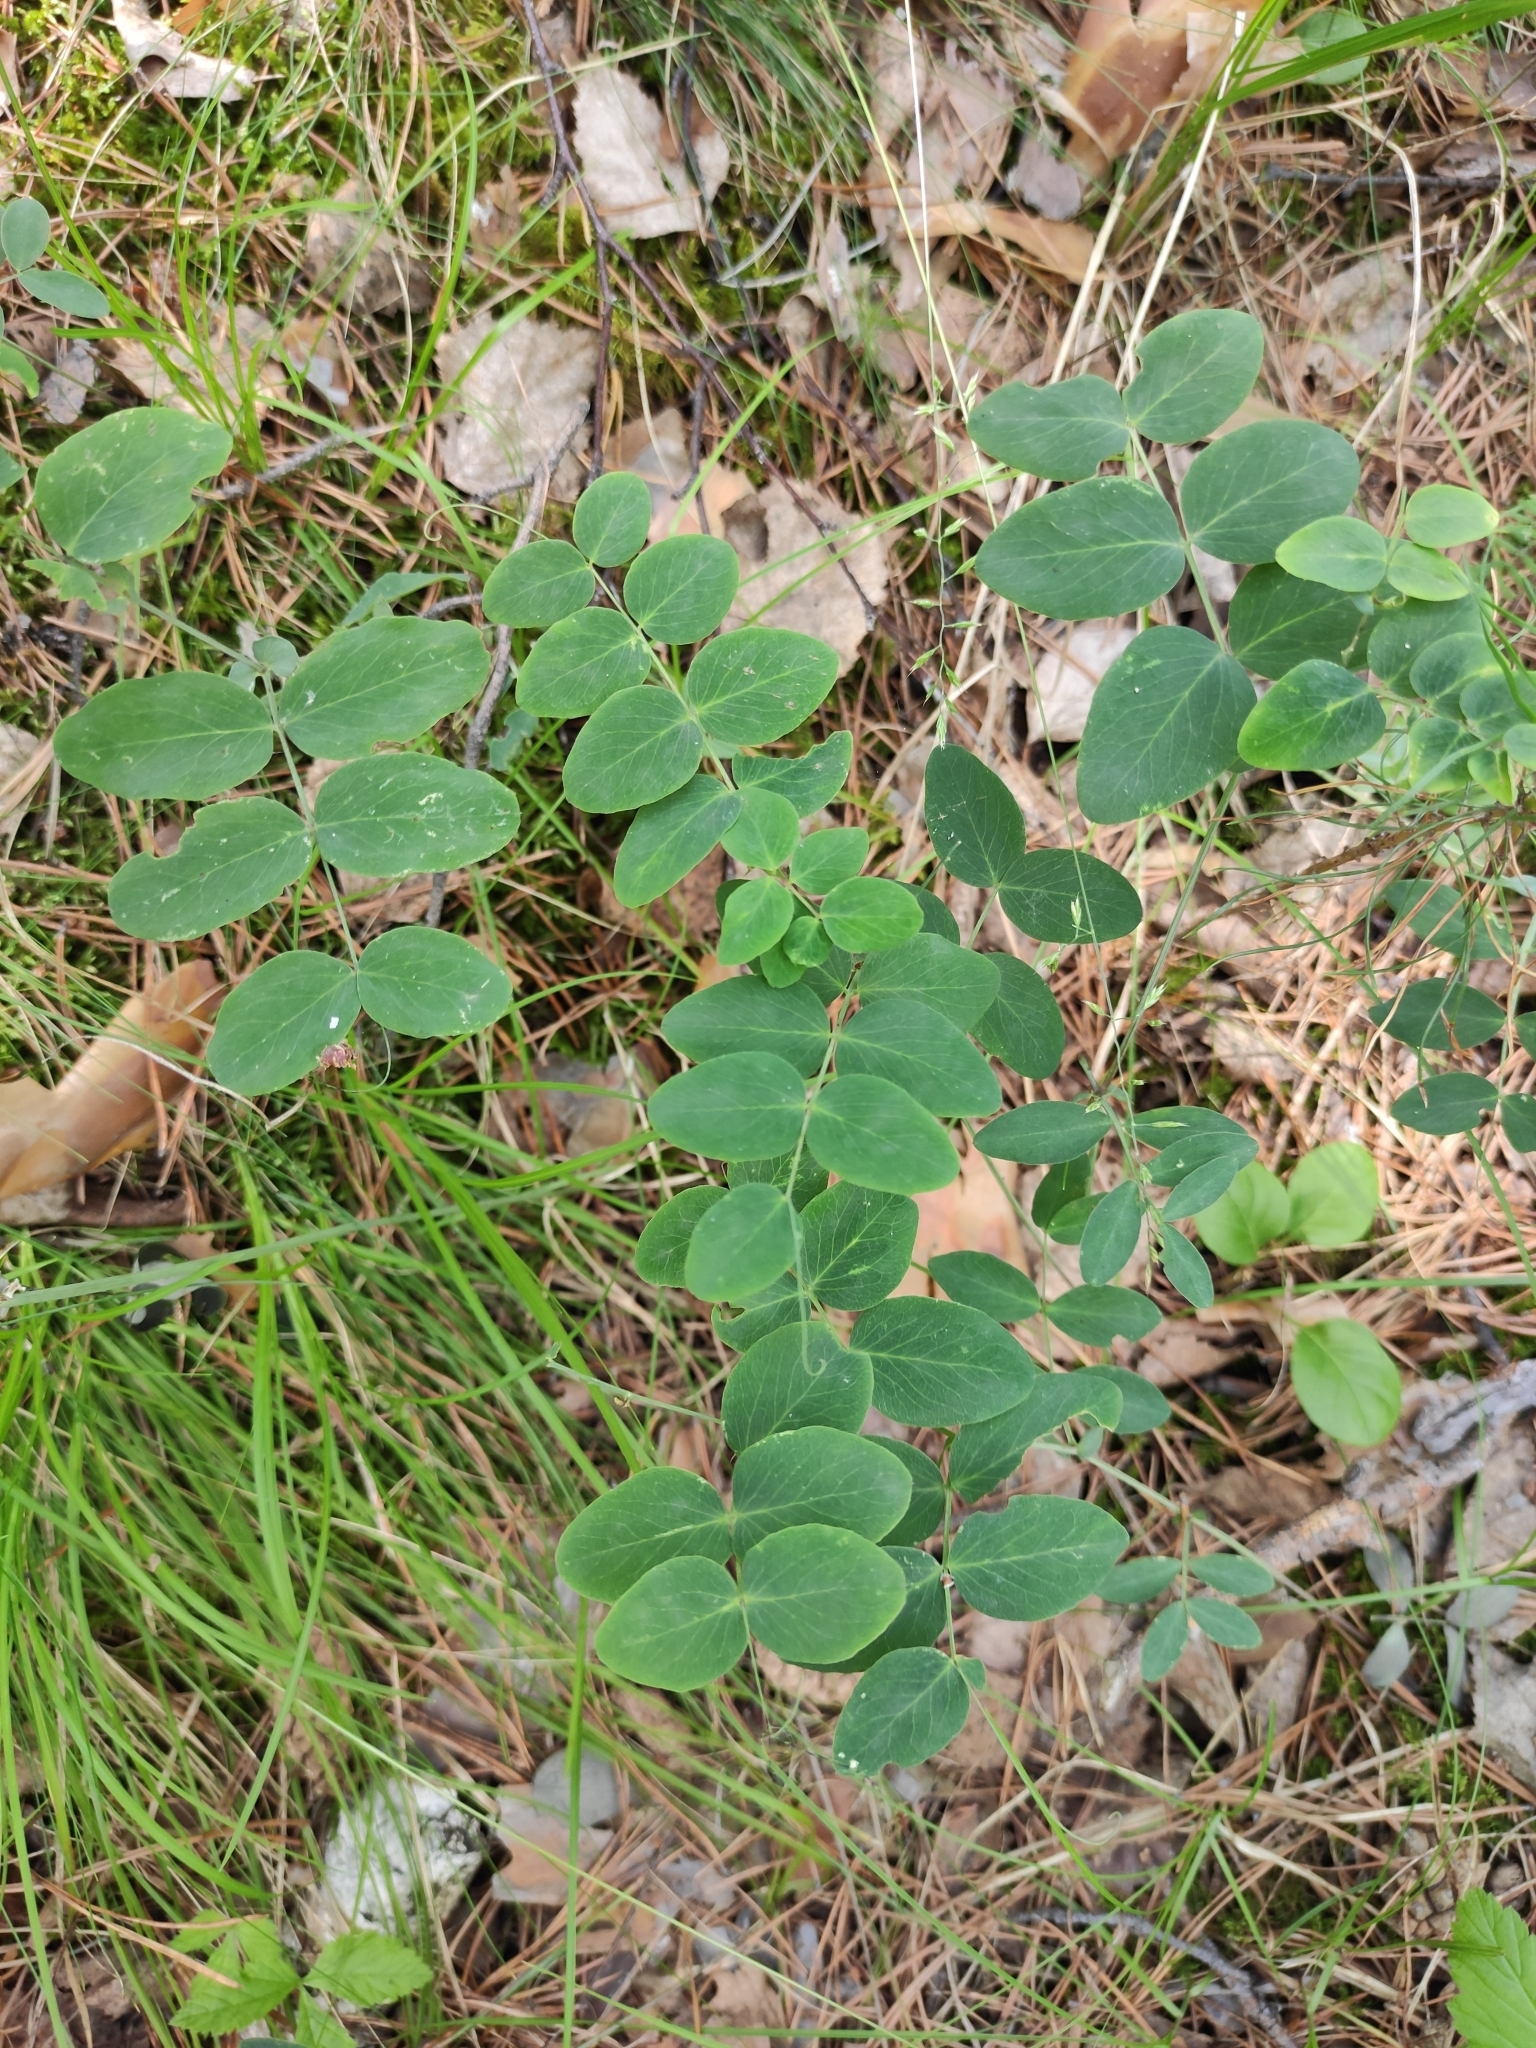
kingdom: Plantae
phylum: Tracheophyta
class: Magnoliopsida
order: Fabales
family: Fabaceae
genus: Lathyrus
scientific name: Lathyrus humilis
